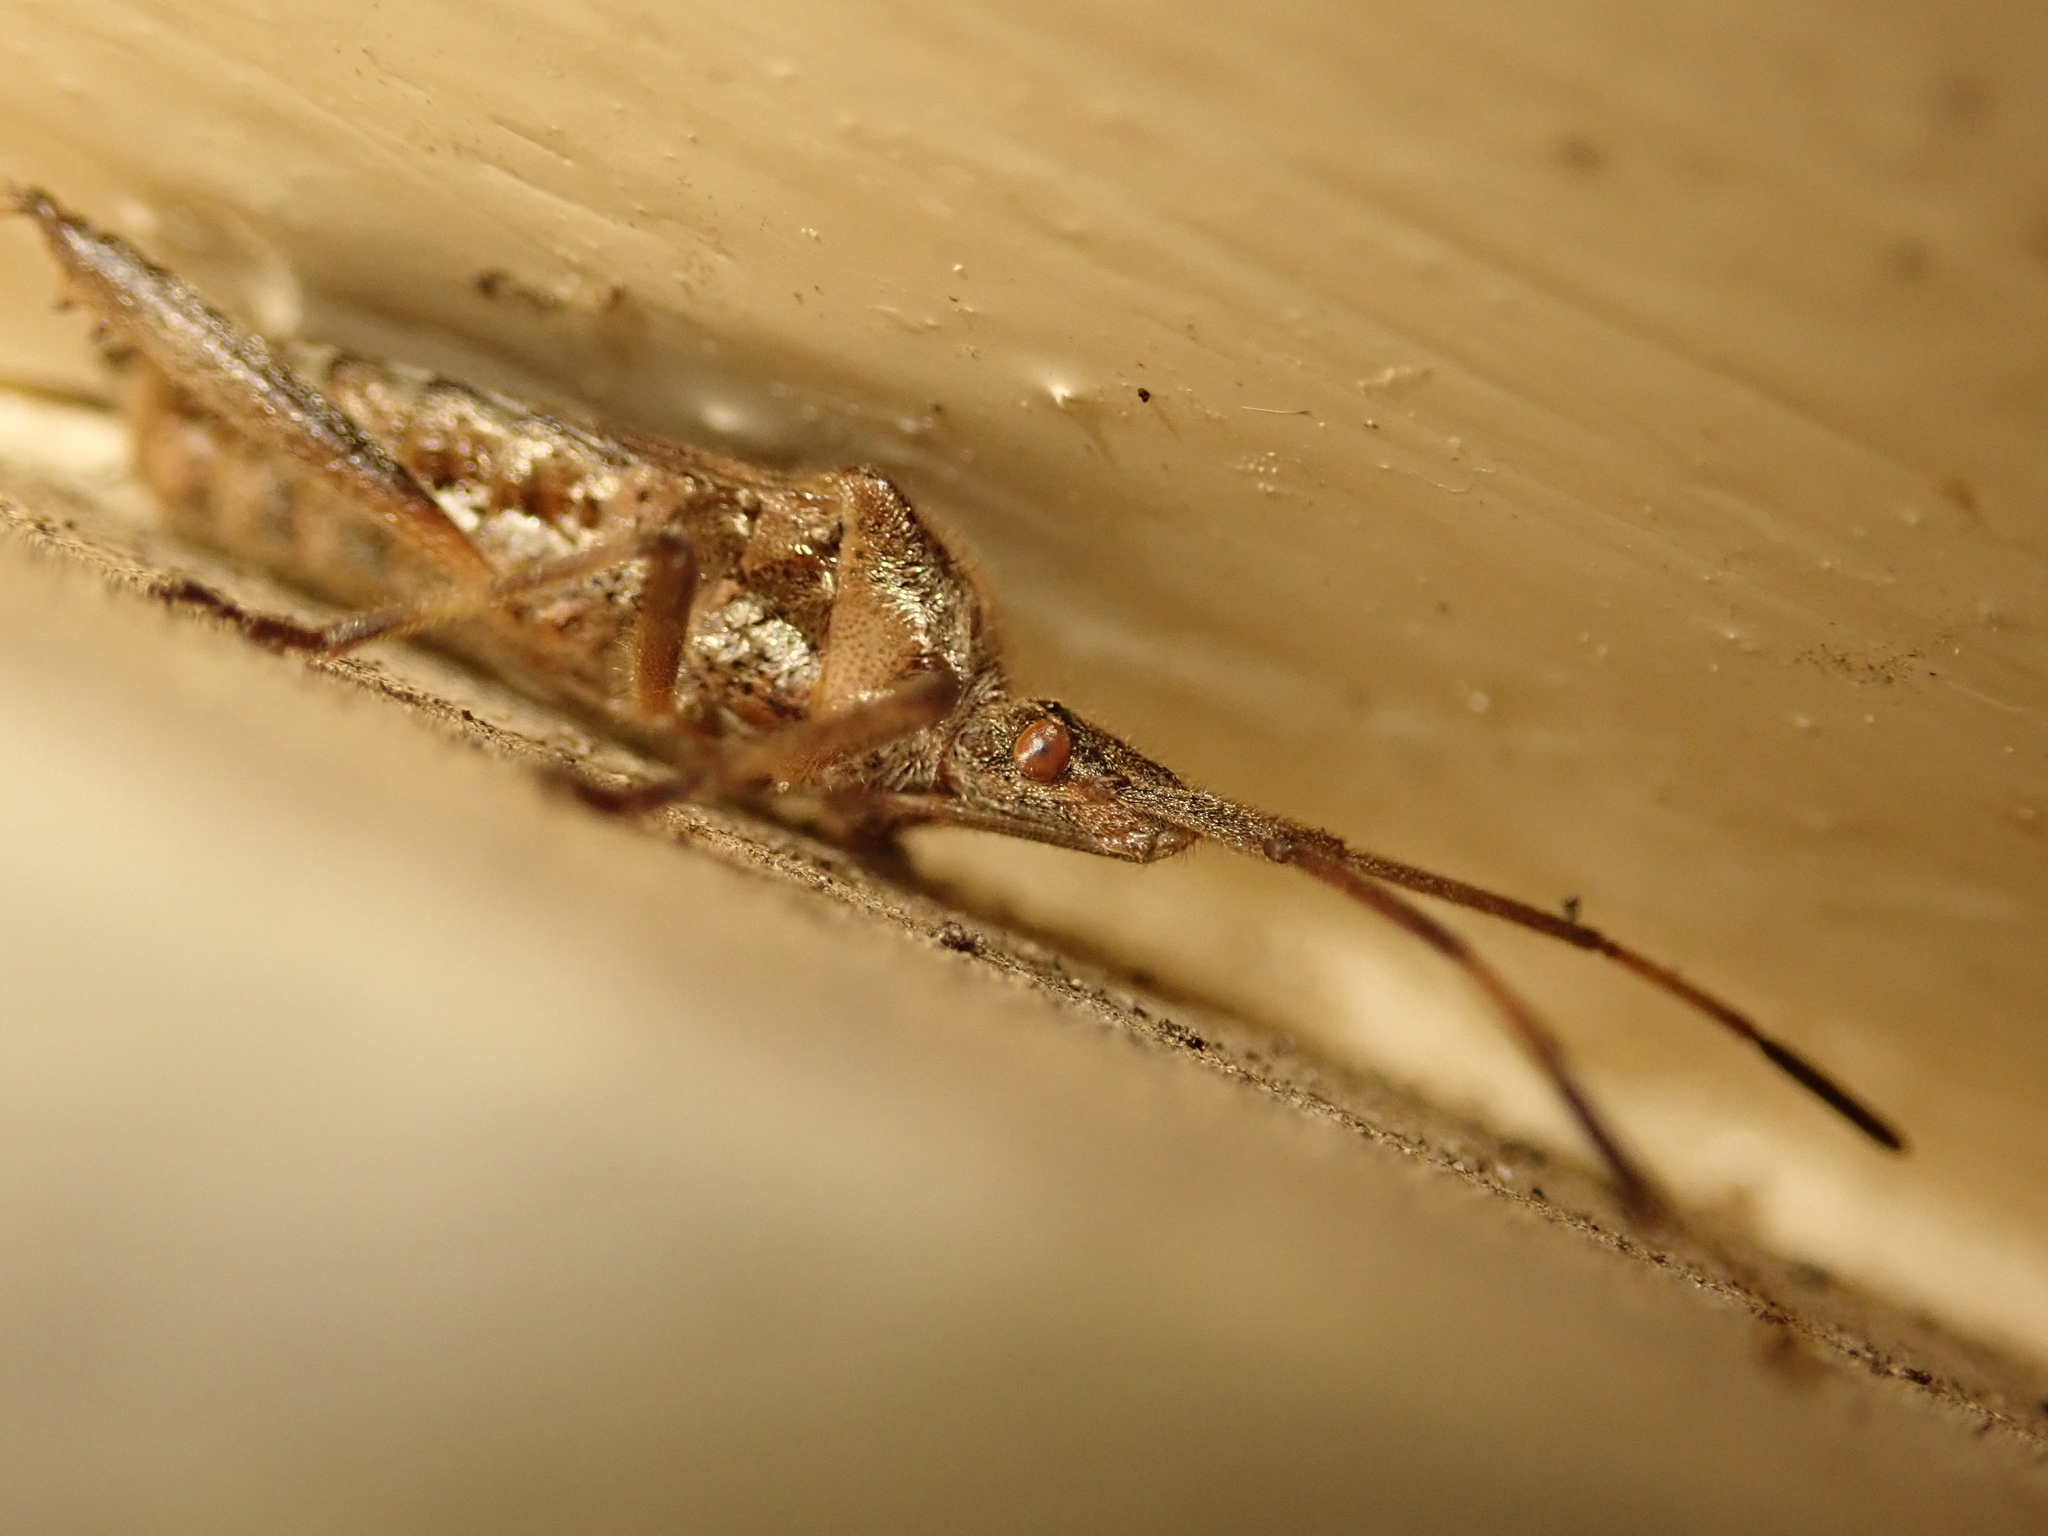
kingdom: Animalia
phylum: Arthropoda
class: Insecta
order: Hemiptera
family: Coreidae
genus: Leptoglossus
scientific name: Leptoglossus occidentalis
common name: Western conifer-seed bug
